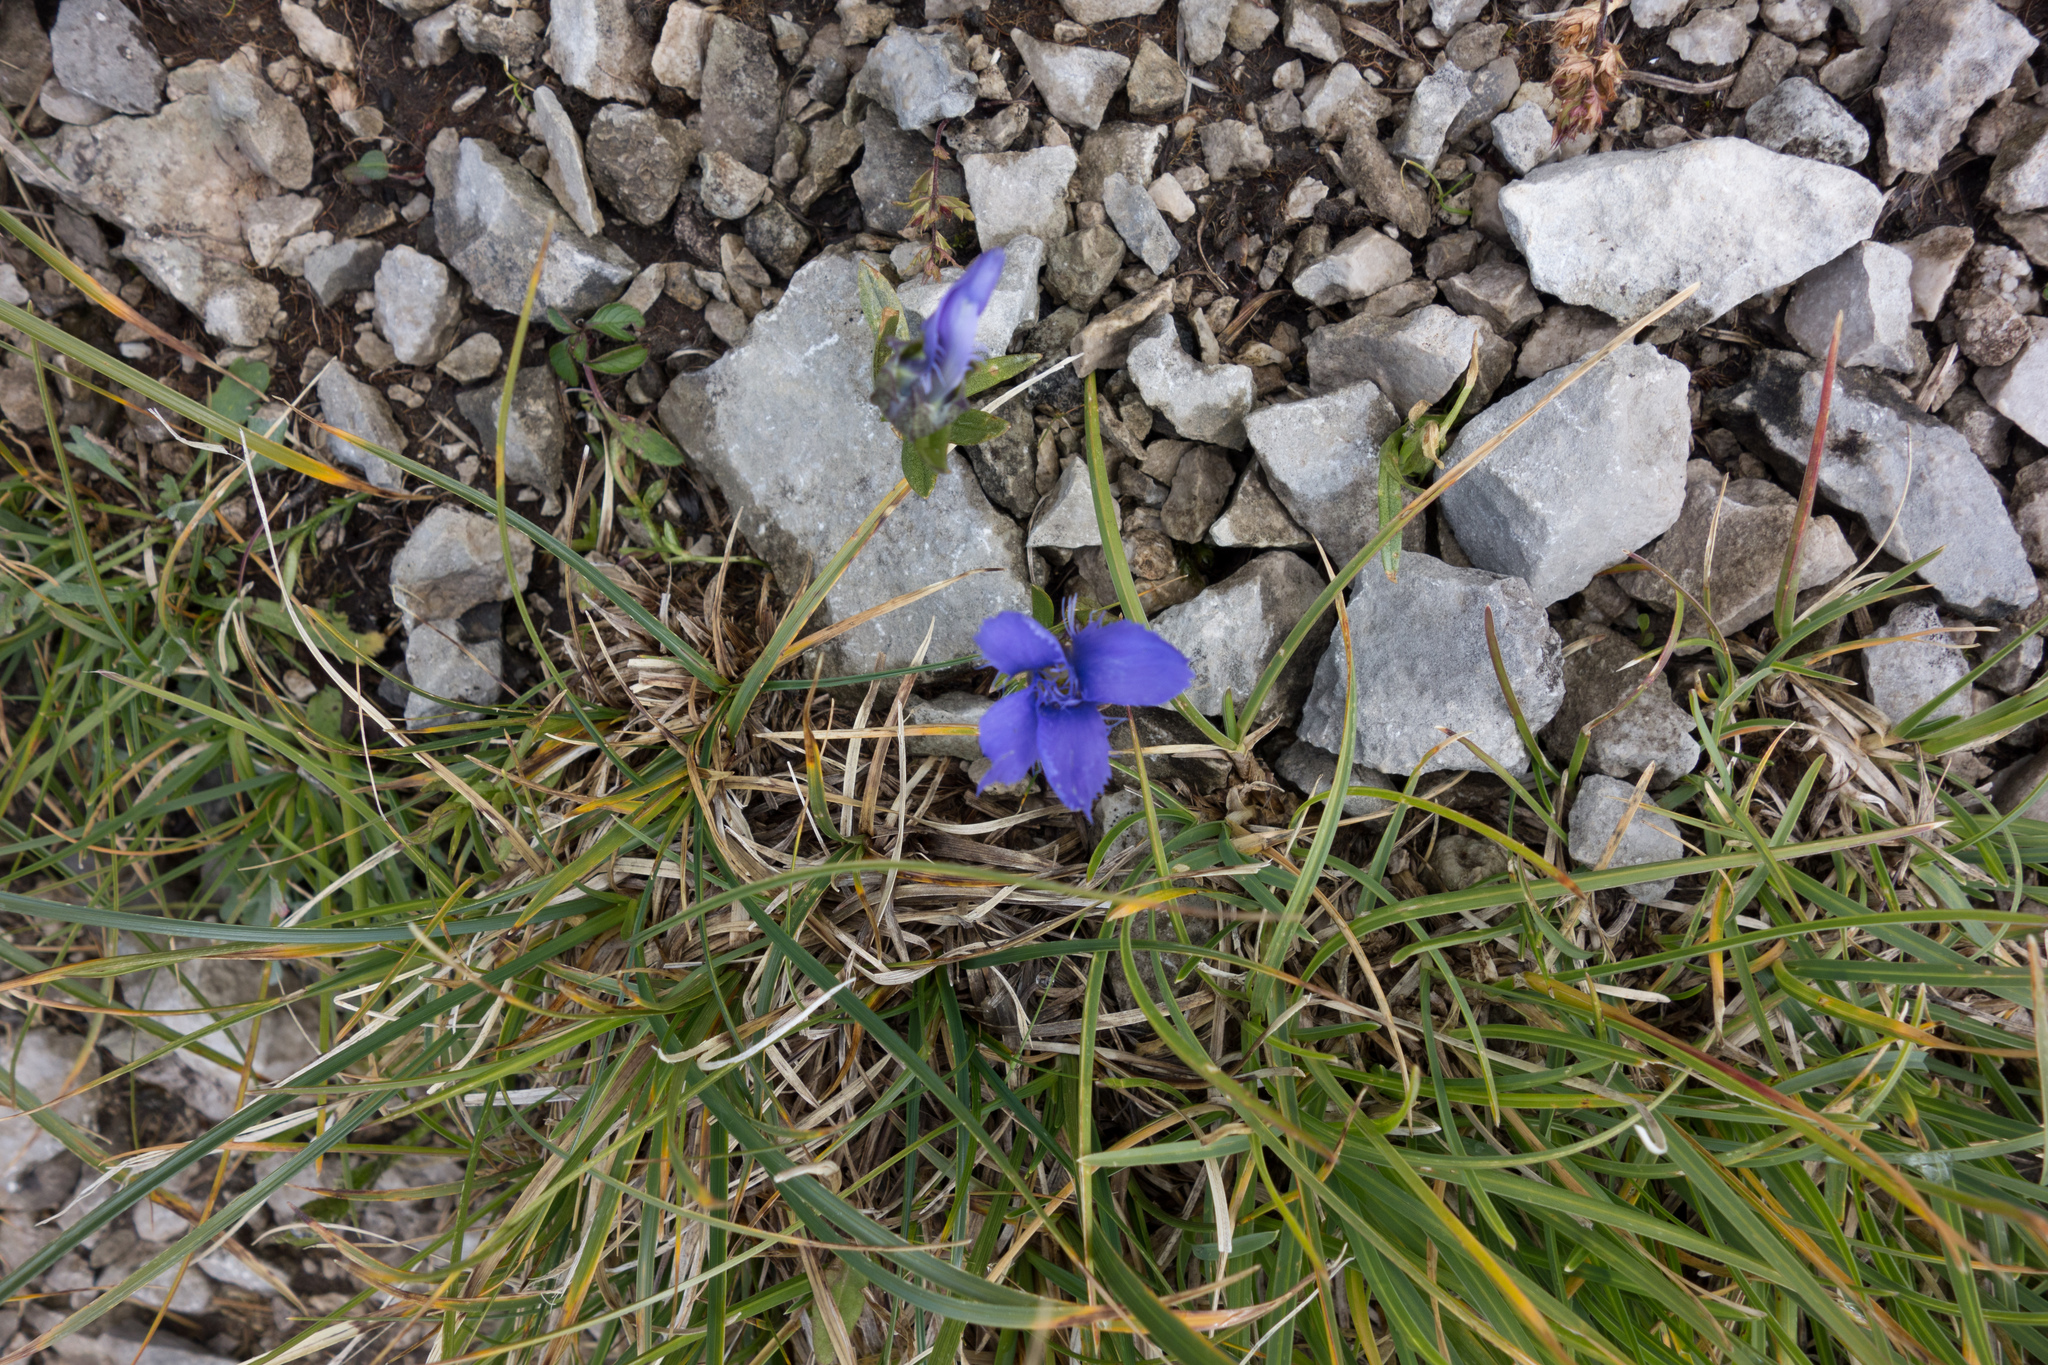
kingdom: Plantae
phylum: Tracheophyta
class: Magnoliopsida
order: Gentianales
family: Gentianaceae
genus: Gentianopsis
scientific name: Gentianopsis ciliata
